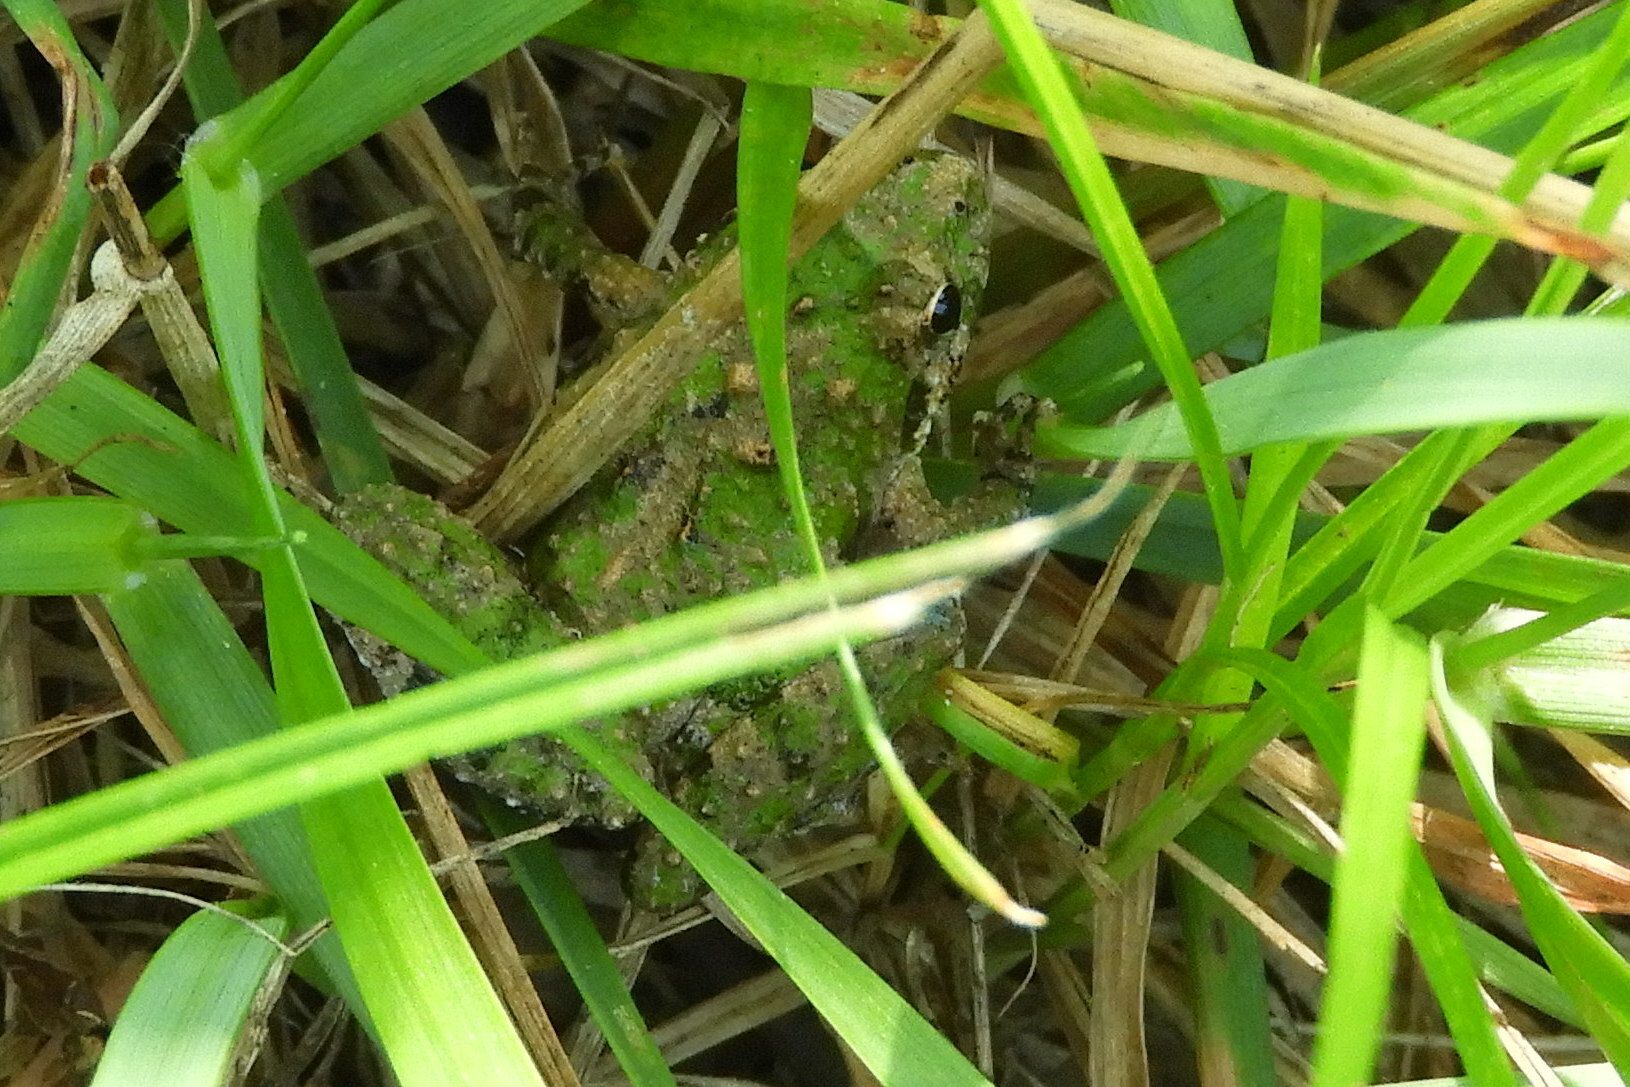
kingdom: Animalia
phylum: Chordata
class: Amphibia
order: Anura
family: Hylidae
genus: Acris
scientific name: Acris crepitans
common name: Northern cricket frog
